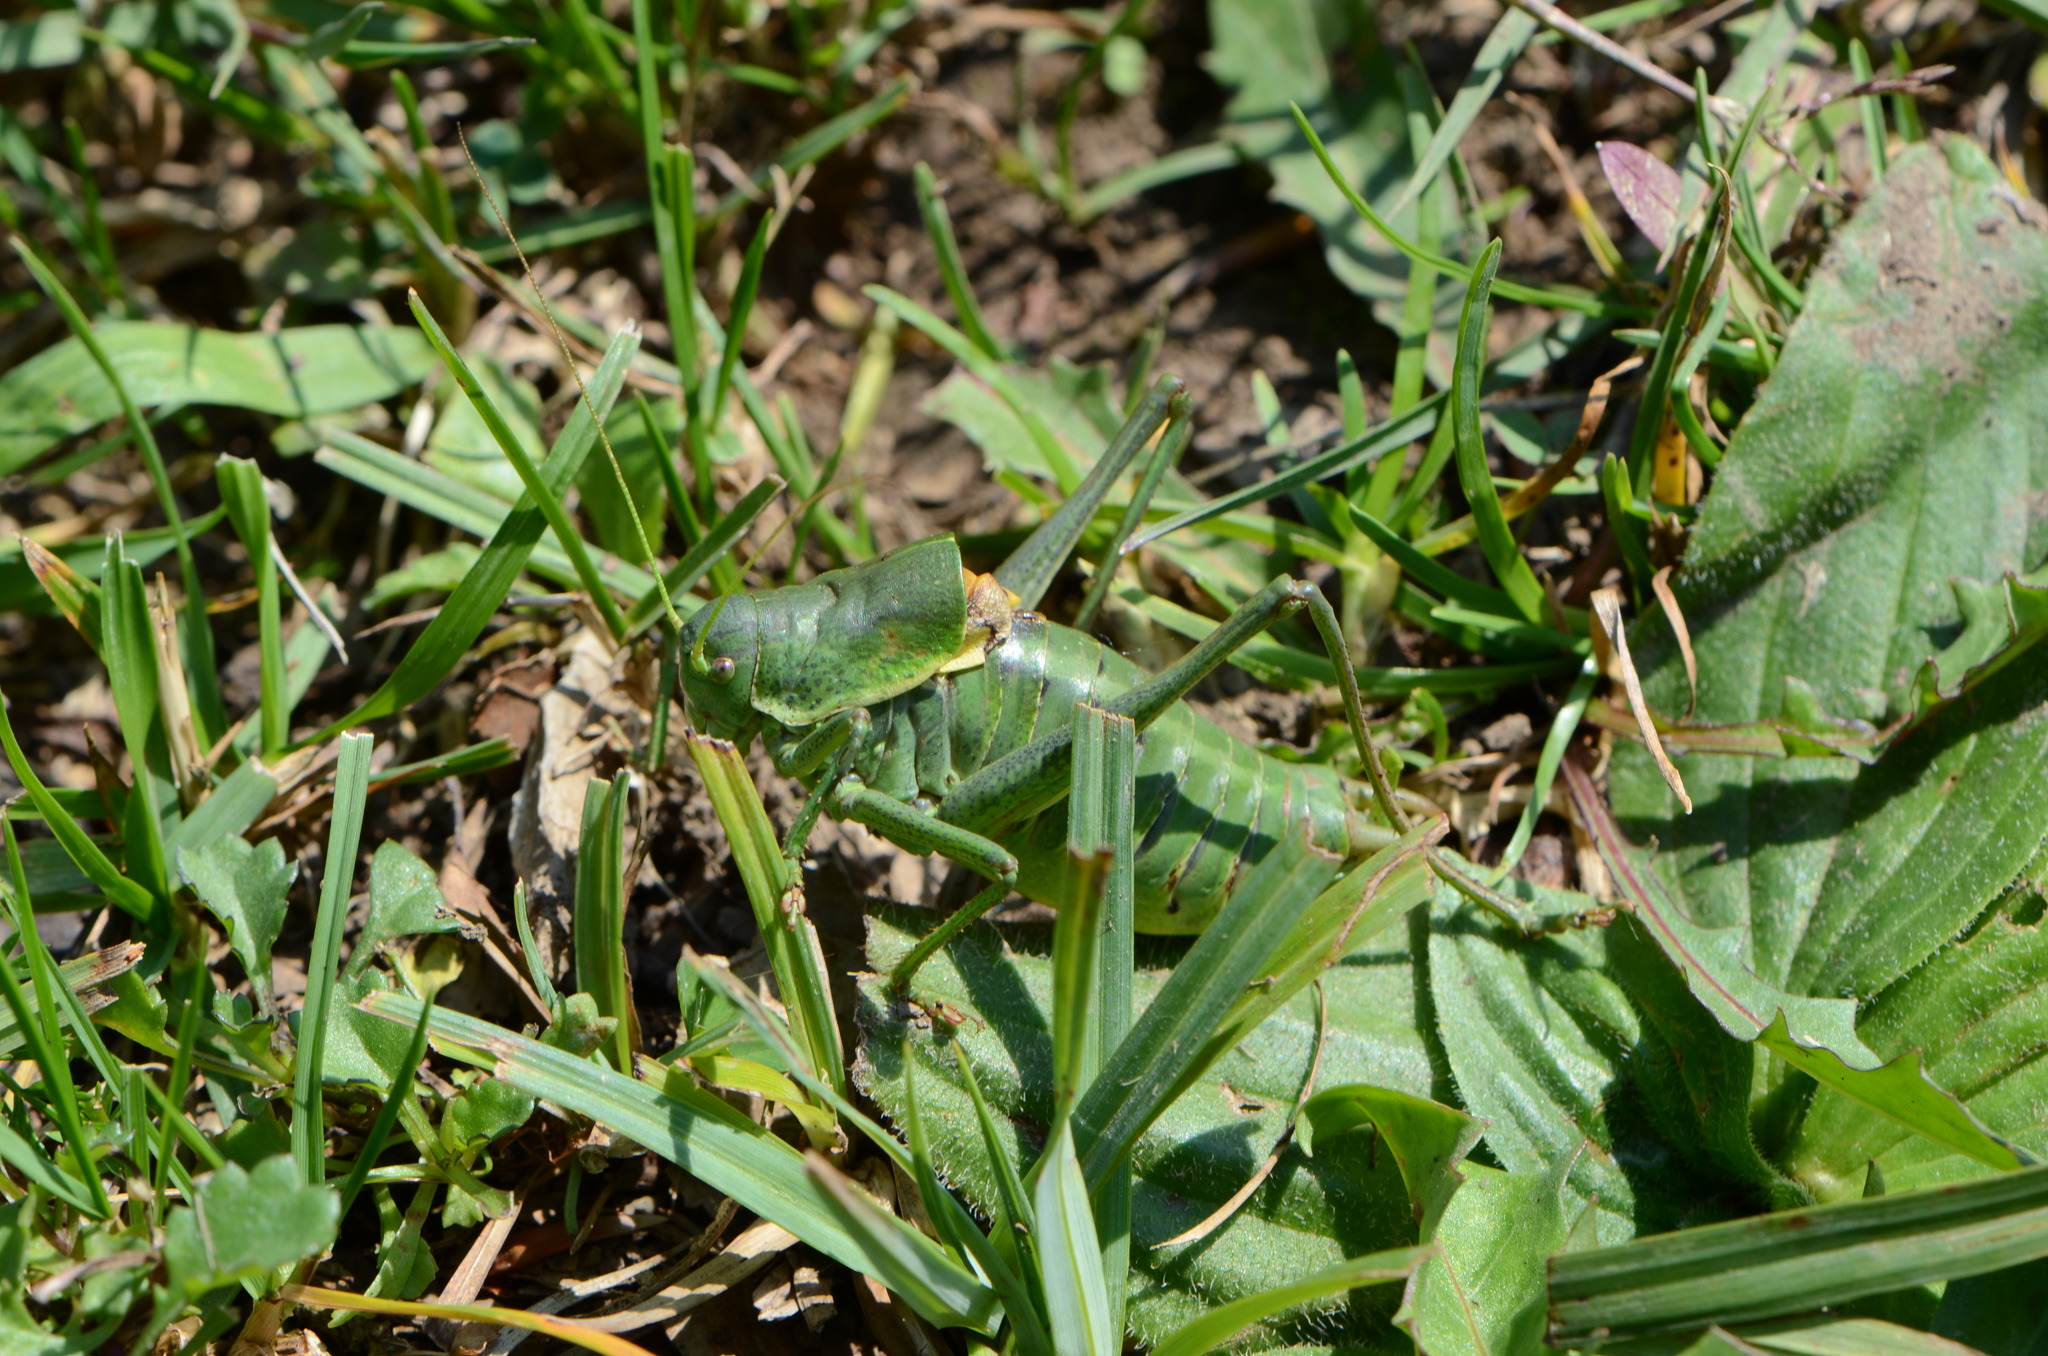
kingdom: Animalia
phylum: Arthropoda
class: Insecta
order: Orthoptera
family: Tettigoniidae
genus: Polysarcus
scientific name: Polysarcus denticauda
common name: Large saw-tailed bush-cricket
